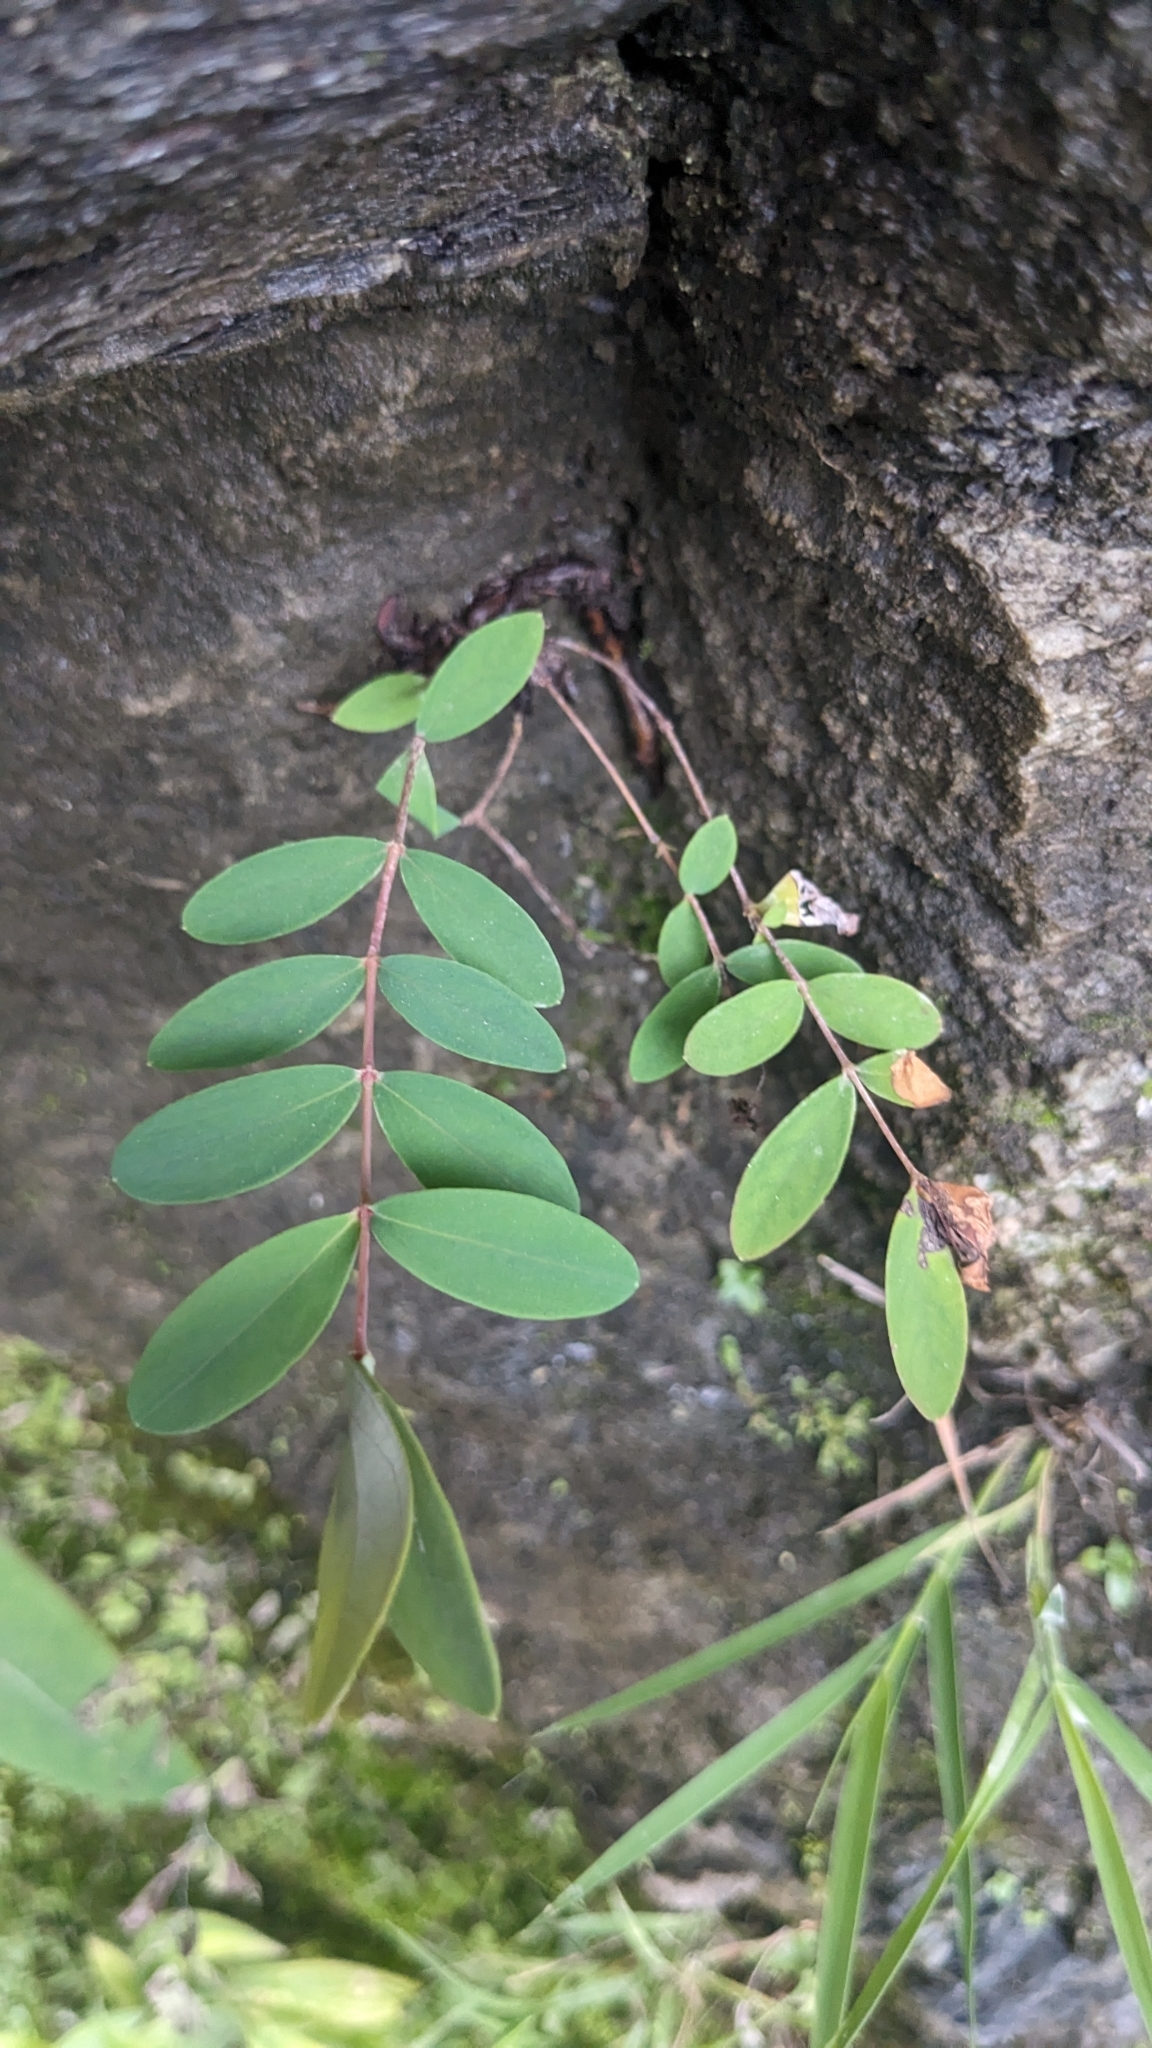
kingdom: Plantae
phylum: Tracheophyta
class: Magnoliopsida
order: Malpighiales
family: Hypericaceae
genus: Hypericum
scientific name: Hypericum geminiflorum
